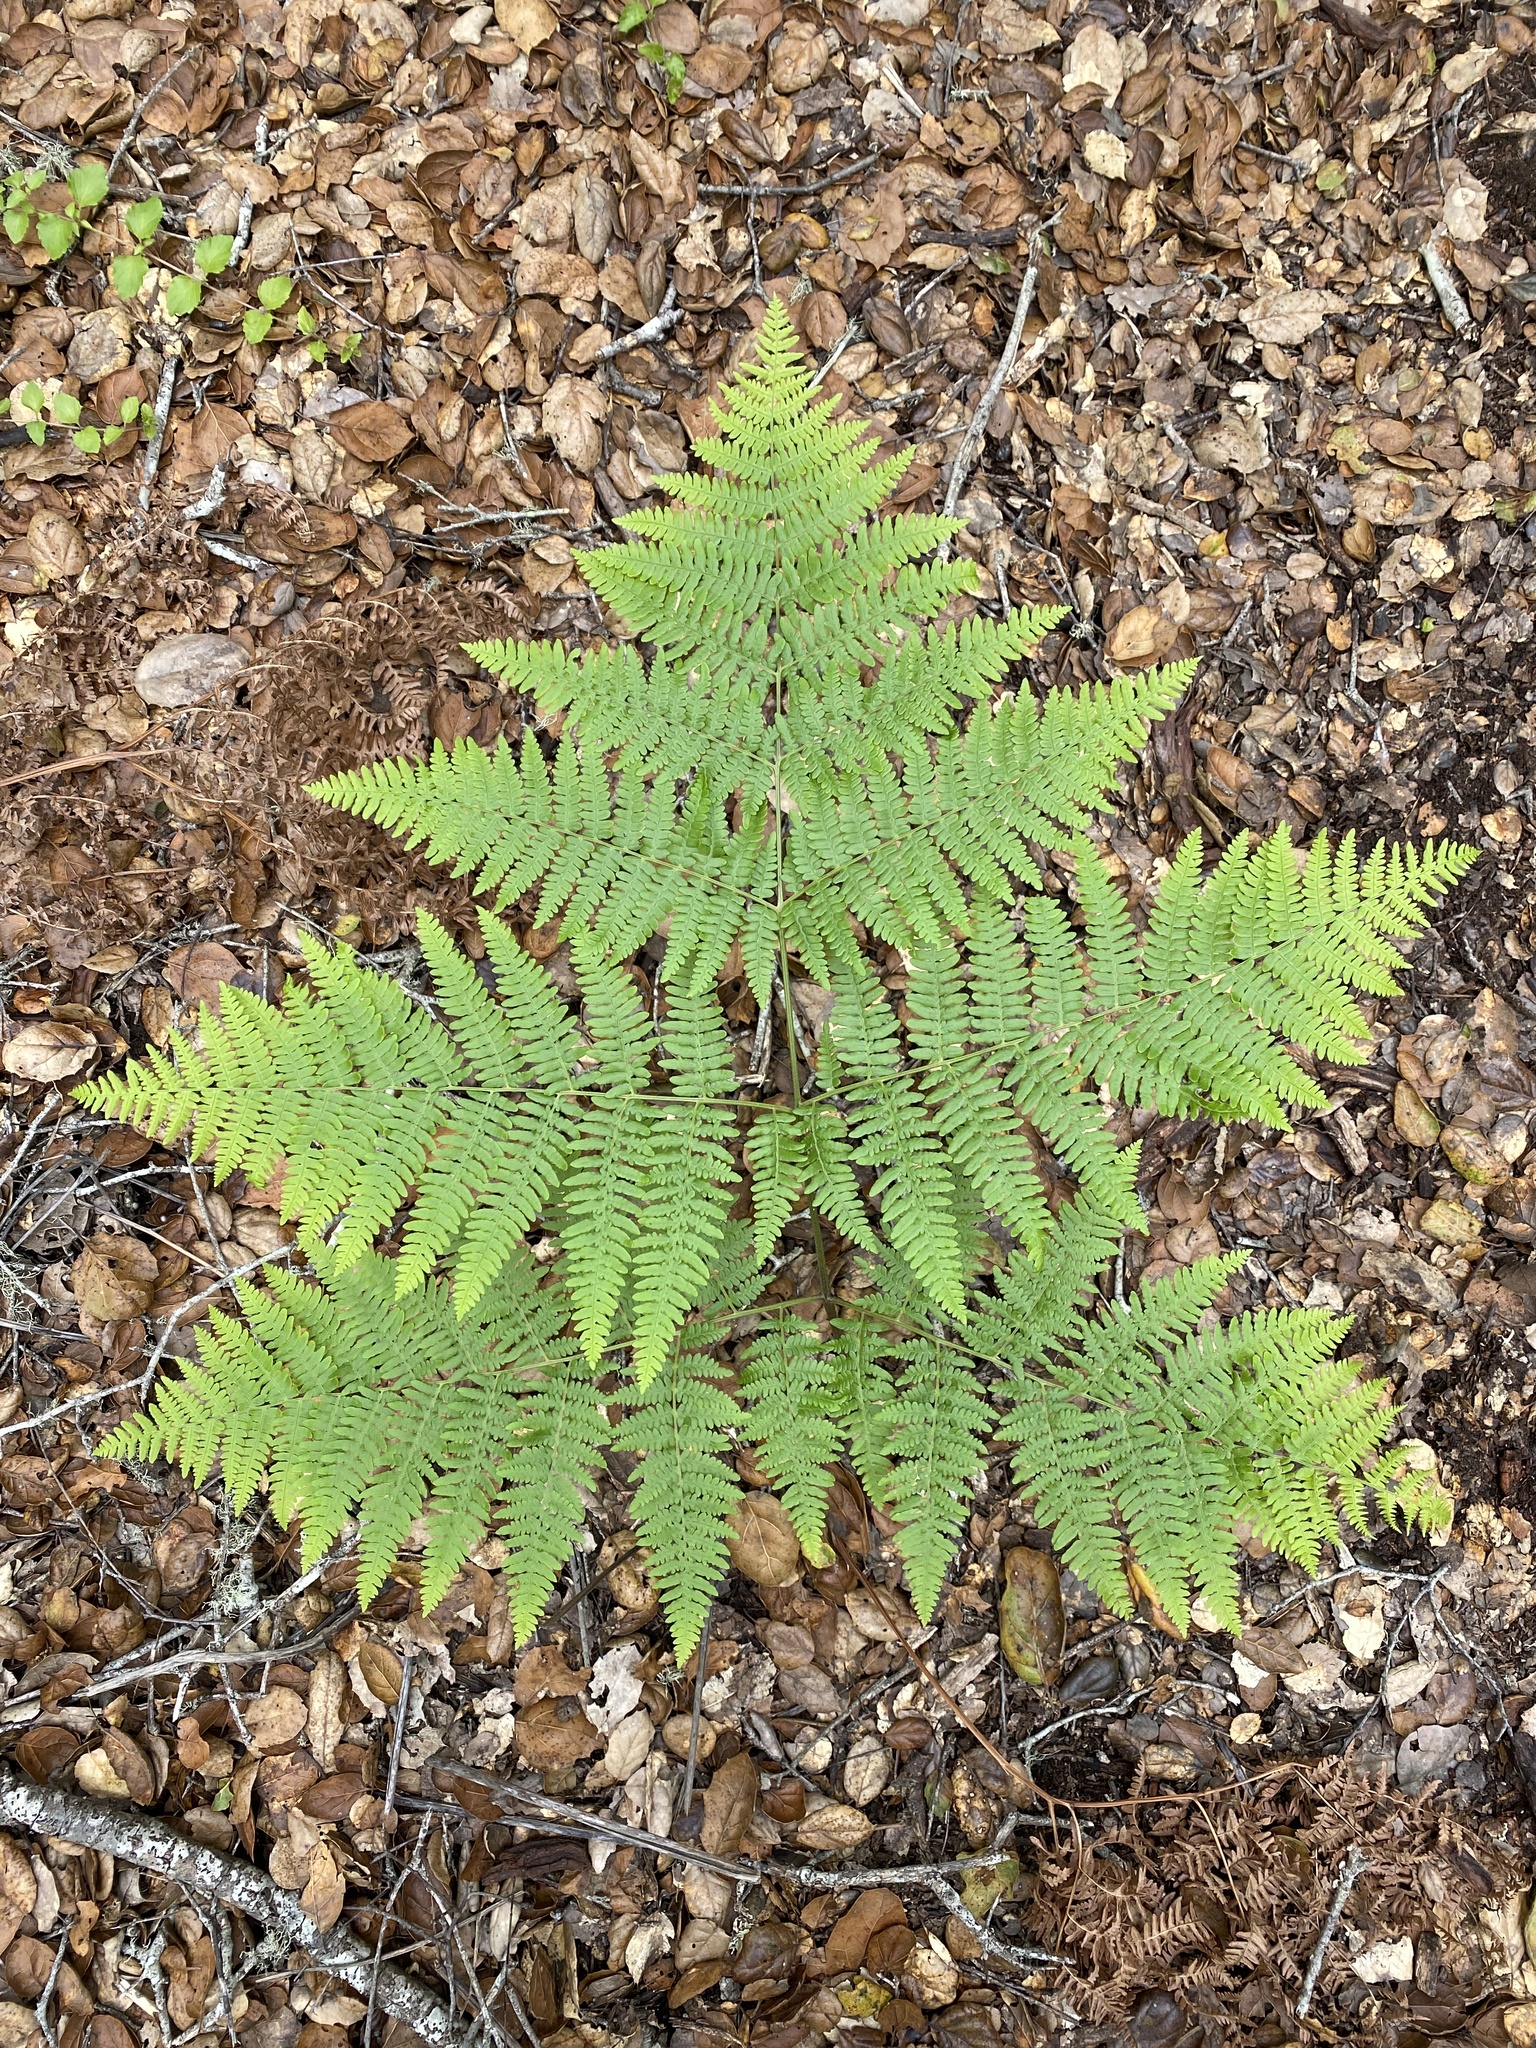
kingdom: Plantae
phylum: Tracheophyta
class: Polypodiopsida
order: Polypodiales
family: Dennstaedtiaceae
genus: Pteridium
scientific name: Pteridium aquilinum
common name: Bracken
